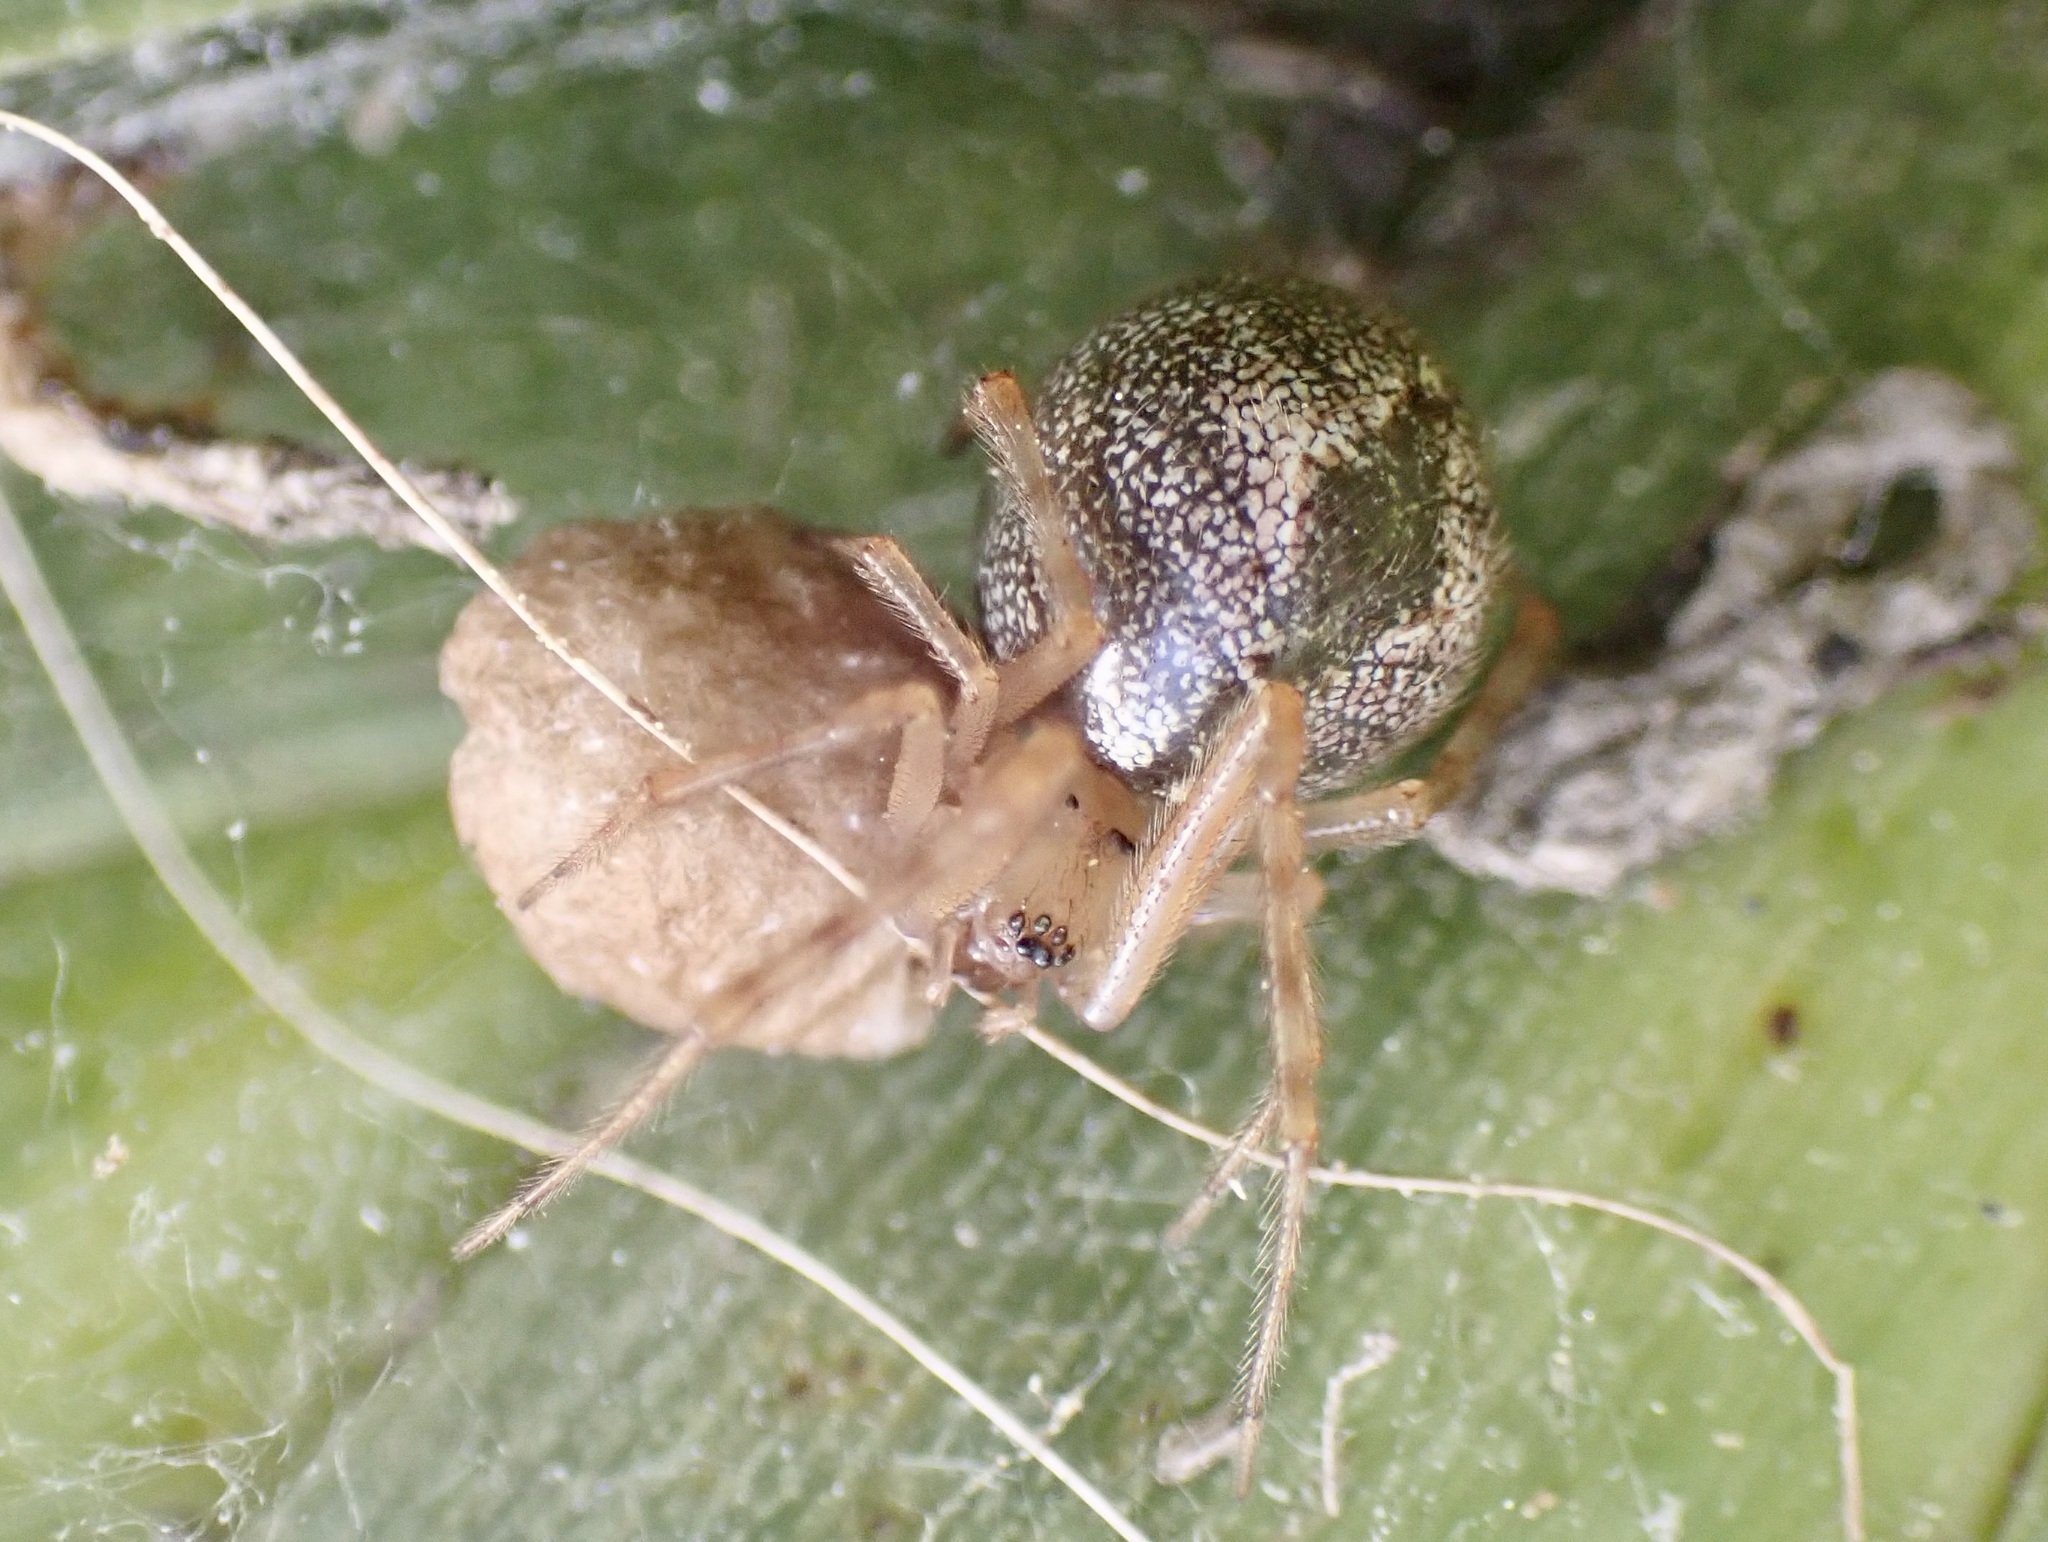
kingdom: Animalia
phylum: Arthropoda
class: Arachnida
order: Araneae
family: Theridiidae
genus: Cryptachaea
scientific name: Cryptachaea veruculata
